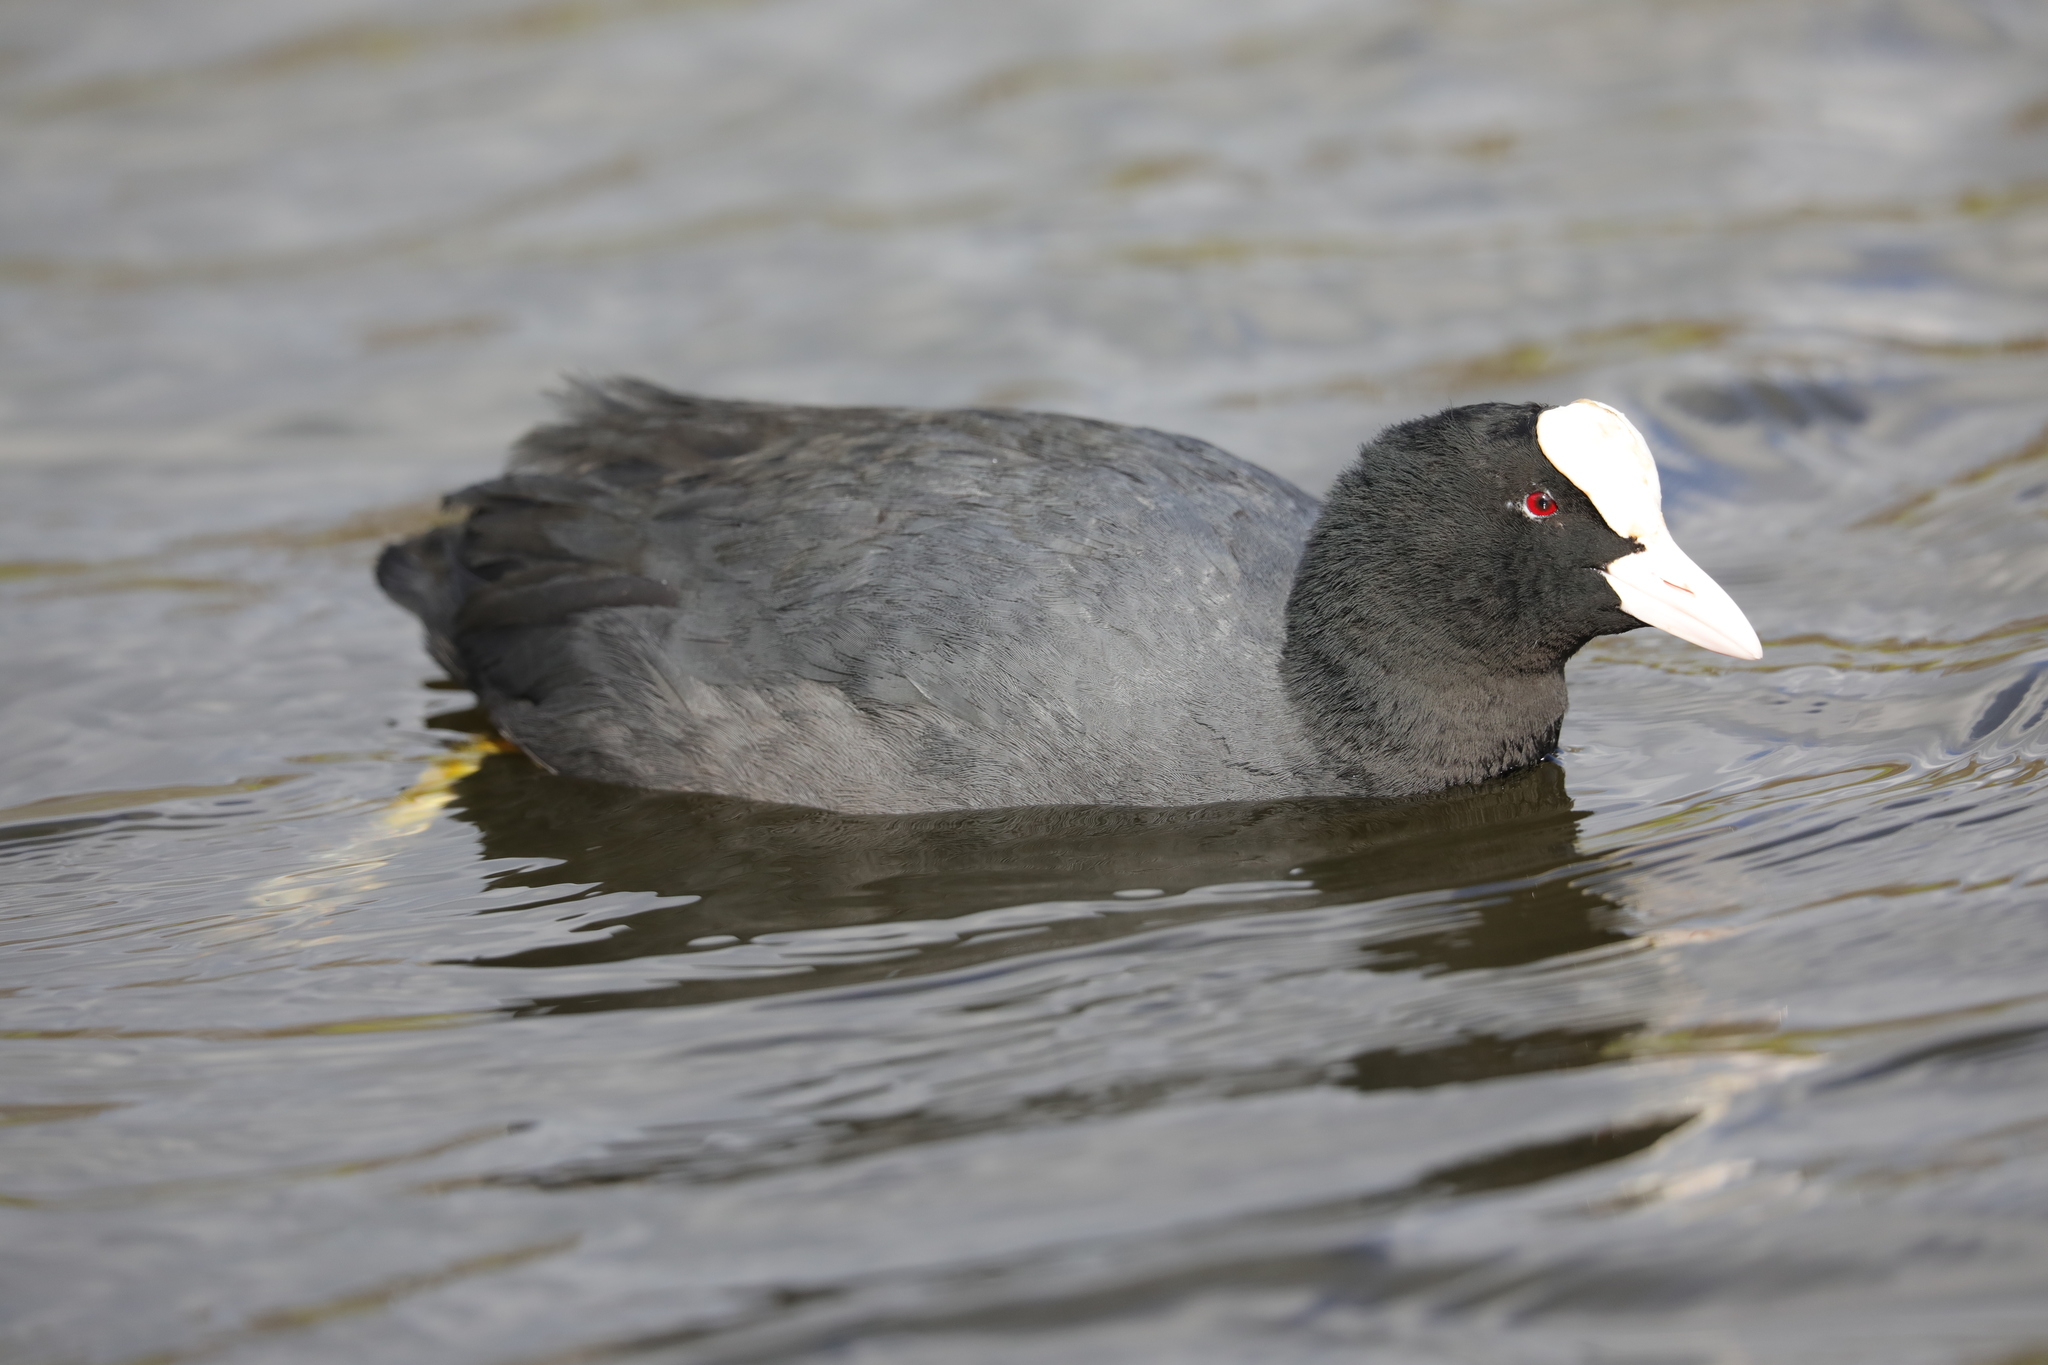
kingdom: Animalia
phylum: Chordata
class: Aves
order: Gruiformes
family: Rallidae
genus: Fulica
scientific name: Fulica atra
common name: Eurasian coot
